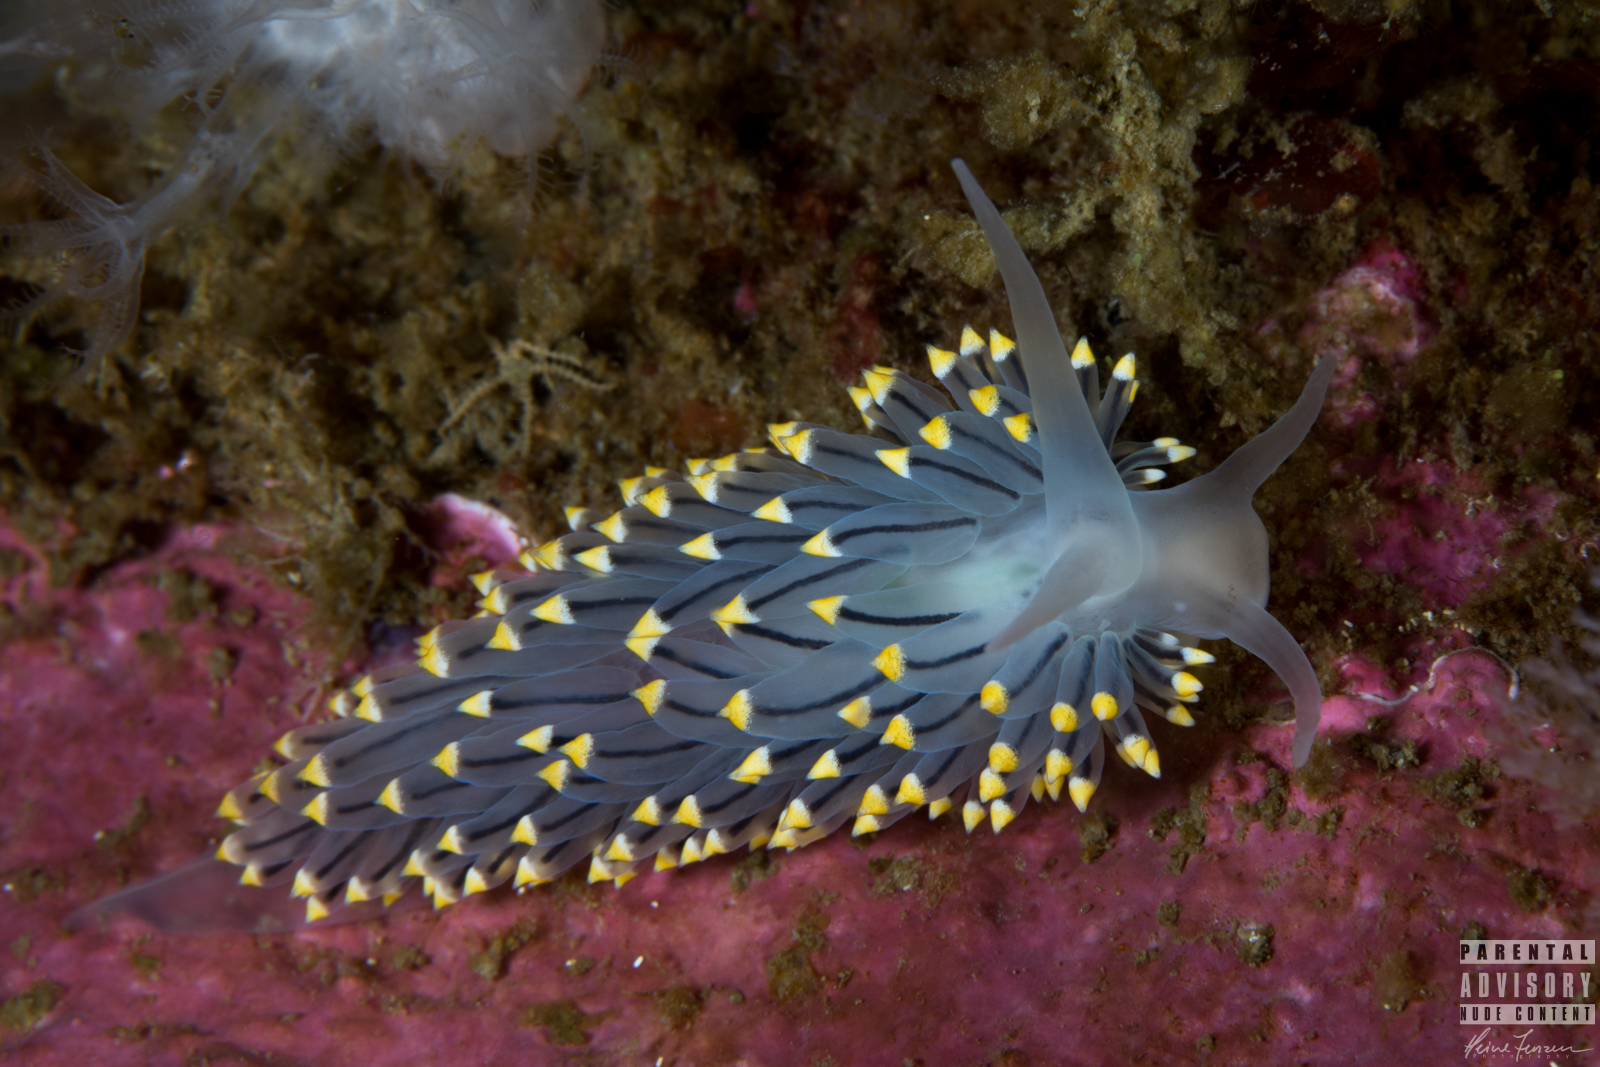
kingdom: Animalia
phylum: Mollusca
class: Gastropoda
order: Nudibranchia
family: Eubranchidae
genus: Eubranchus
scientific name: Eubranchus tricolor
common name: Painted balloon aeolis
